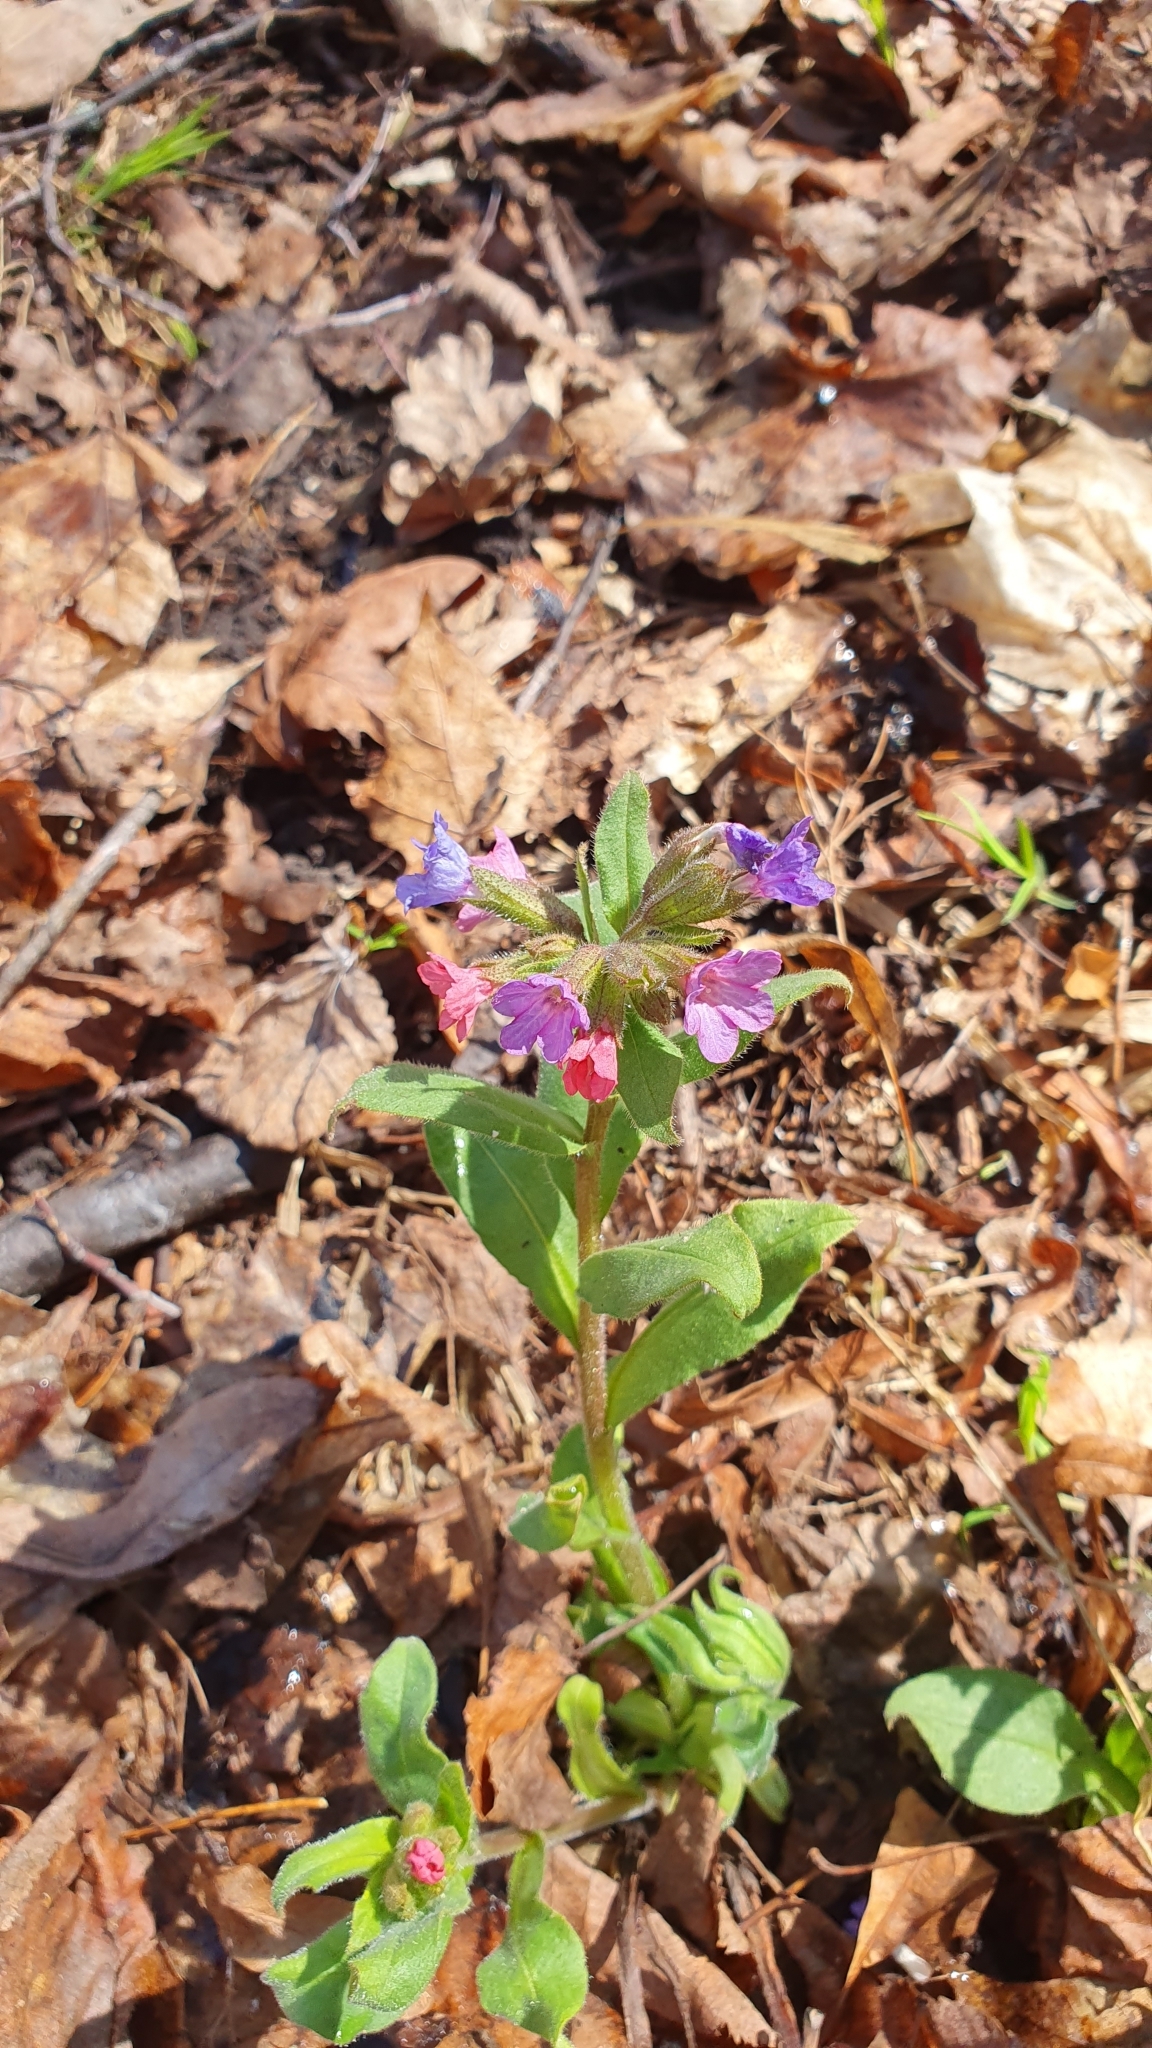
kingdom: Plantae
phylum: Tracheophyta
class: Magnoliopsida
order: Boraginales
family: Boraginaceae
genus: Pulmonaria
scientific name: Pulmonaria obscura
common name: Suffolk lungwort
